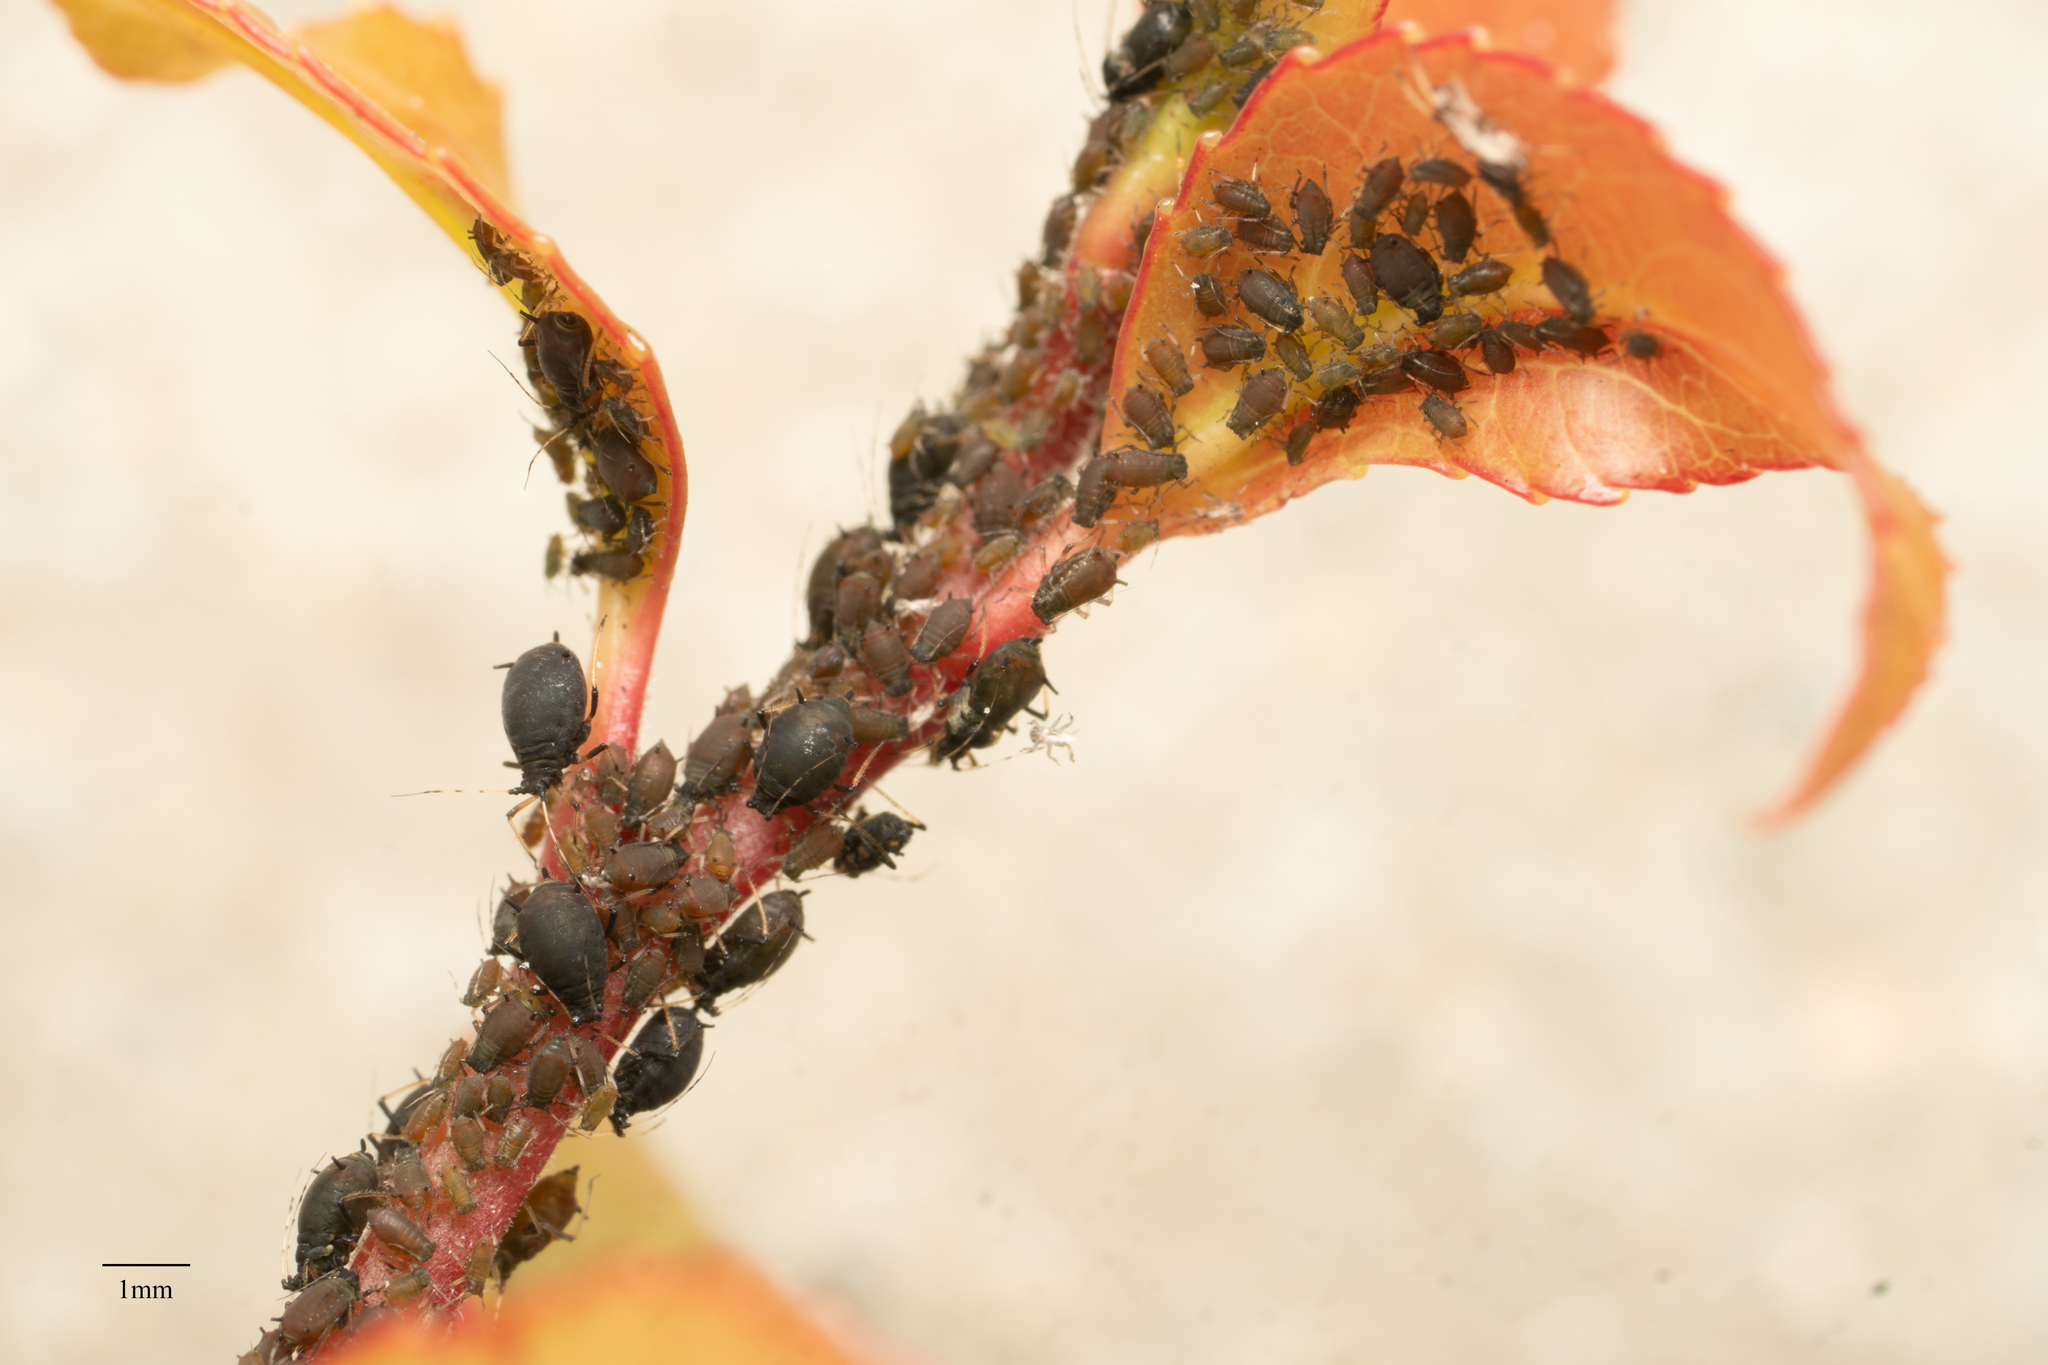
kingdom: Animalia
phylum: Arthropoda
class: Insecta
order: Hemiptera
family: Aphididae
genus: Aphis
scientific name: Aphis aurantii
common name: Black citrus aphid
